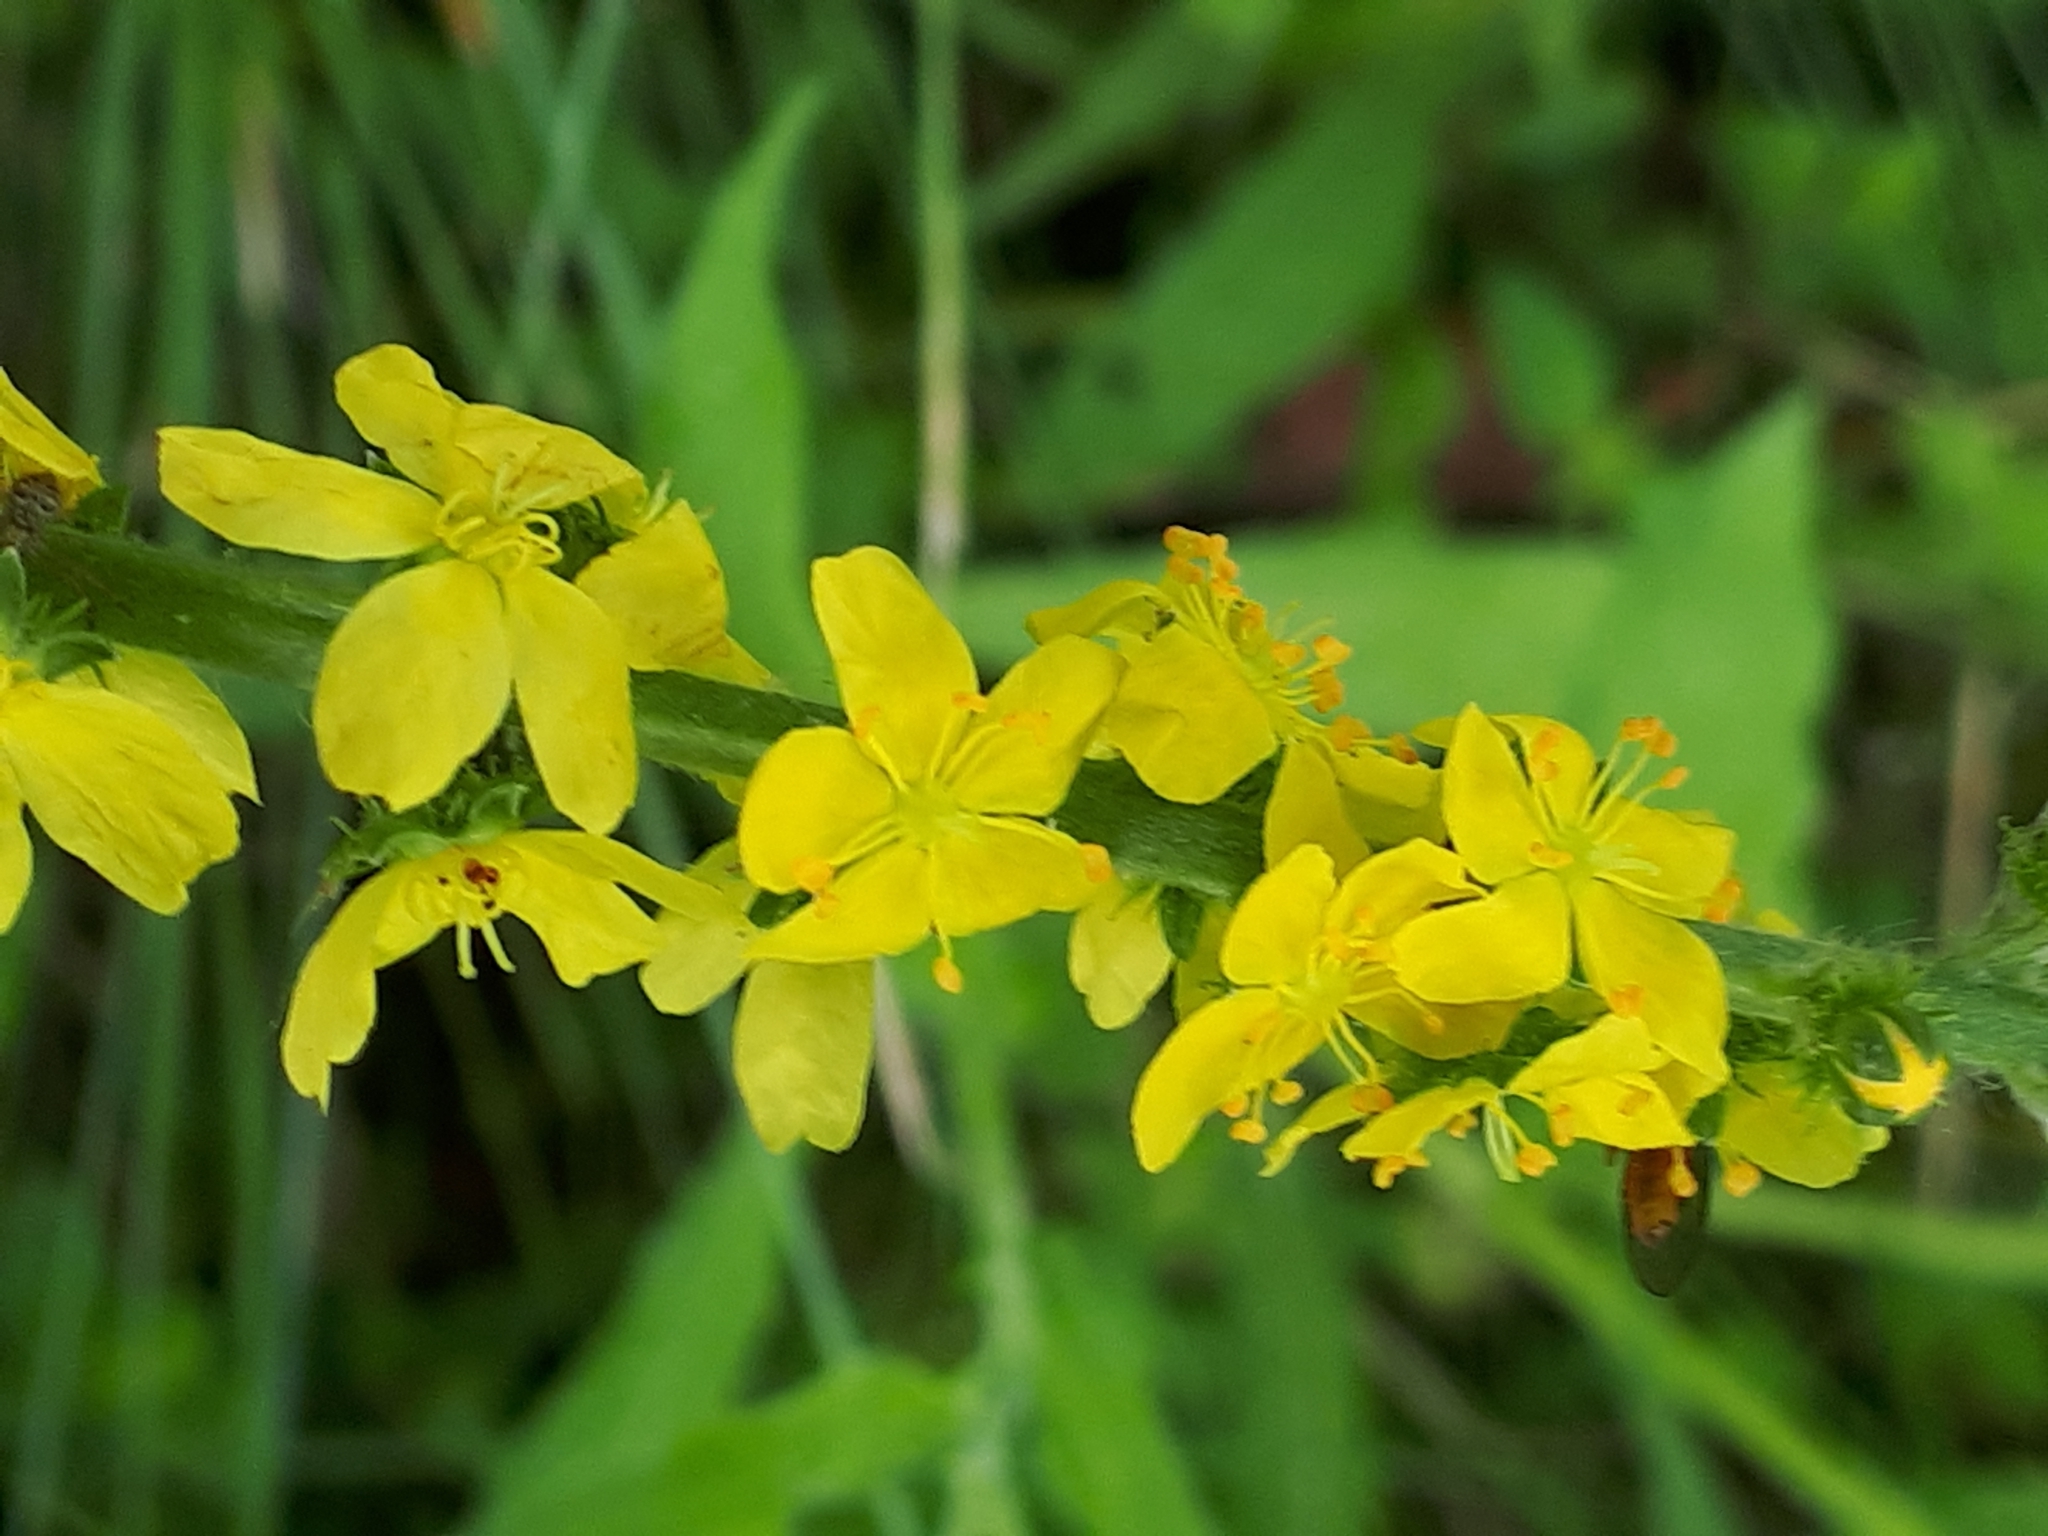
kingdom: Plantae
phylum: Tracheophyta
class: Magnoliopsida
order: Rosales
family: Rosaceae
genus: Agrimonia
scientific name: Agrimonia eupatoria
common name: Agrimony
